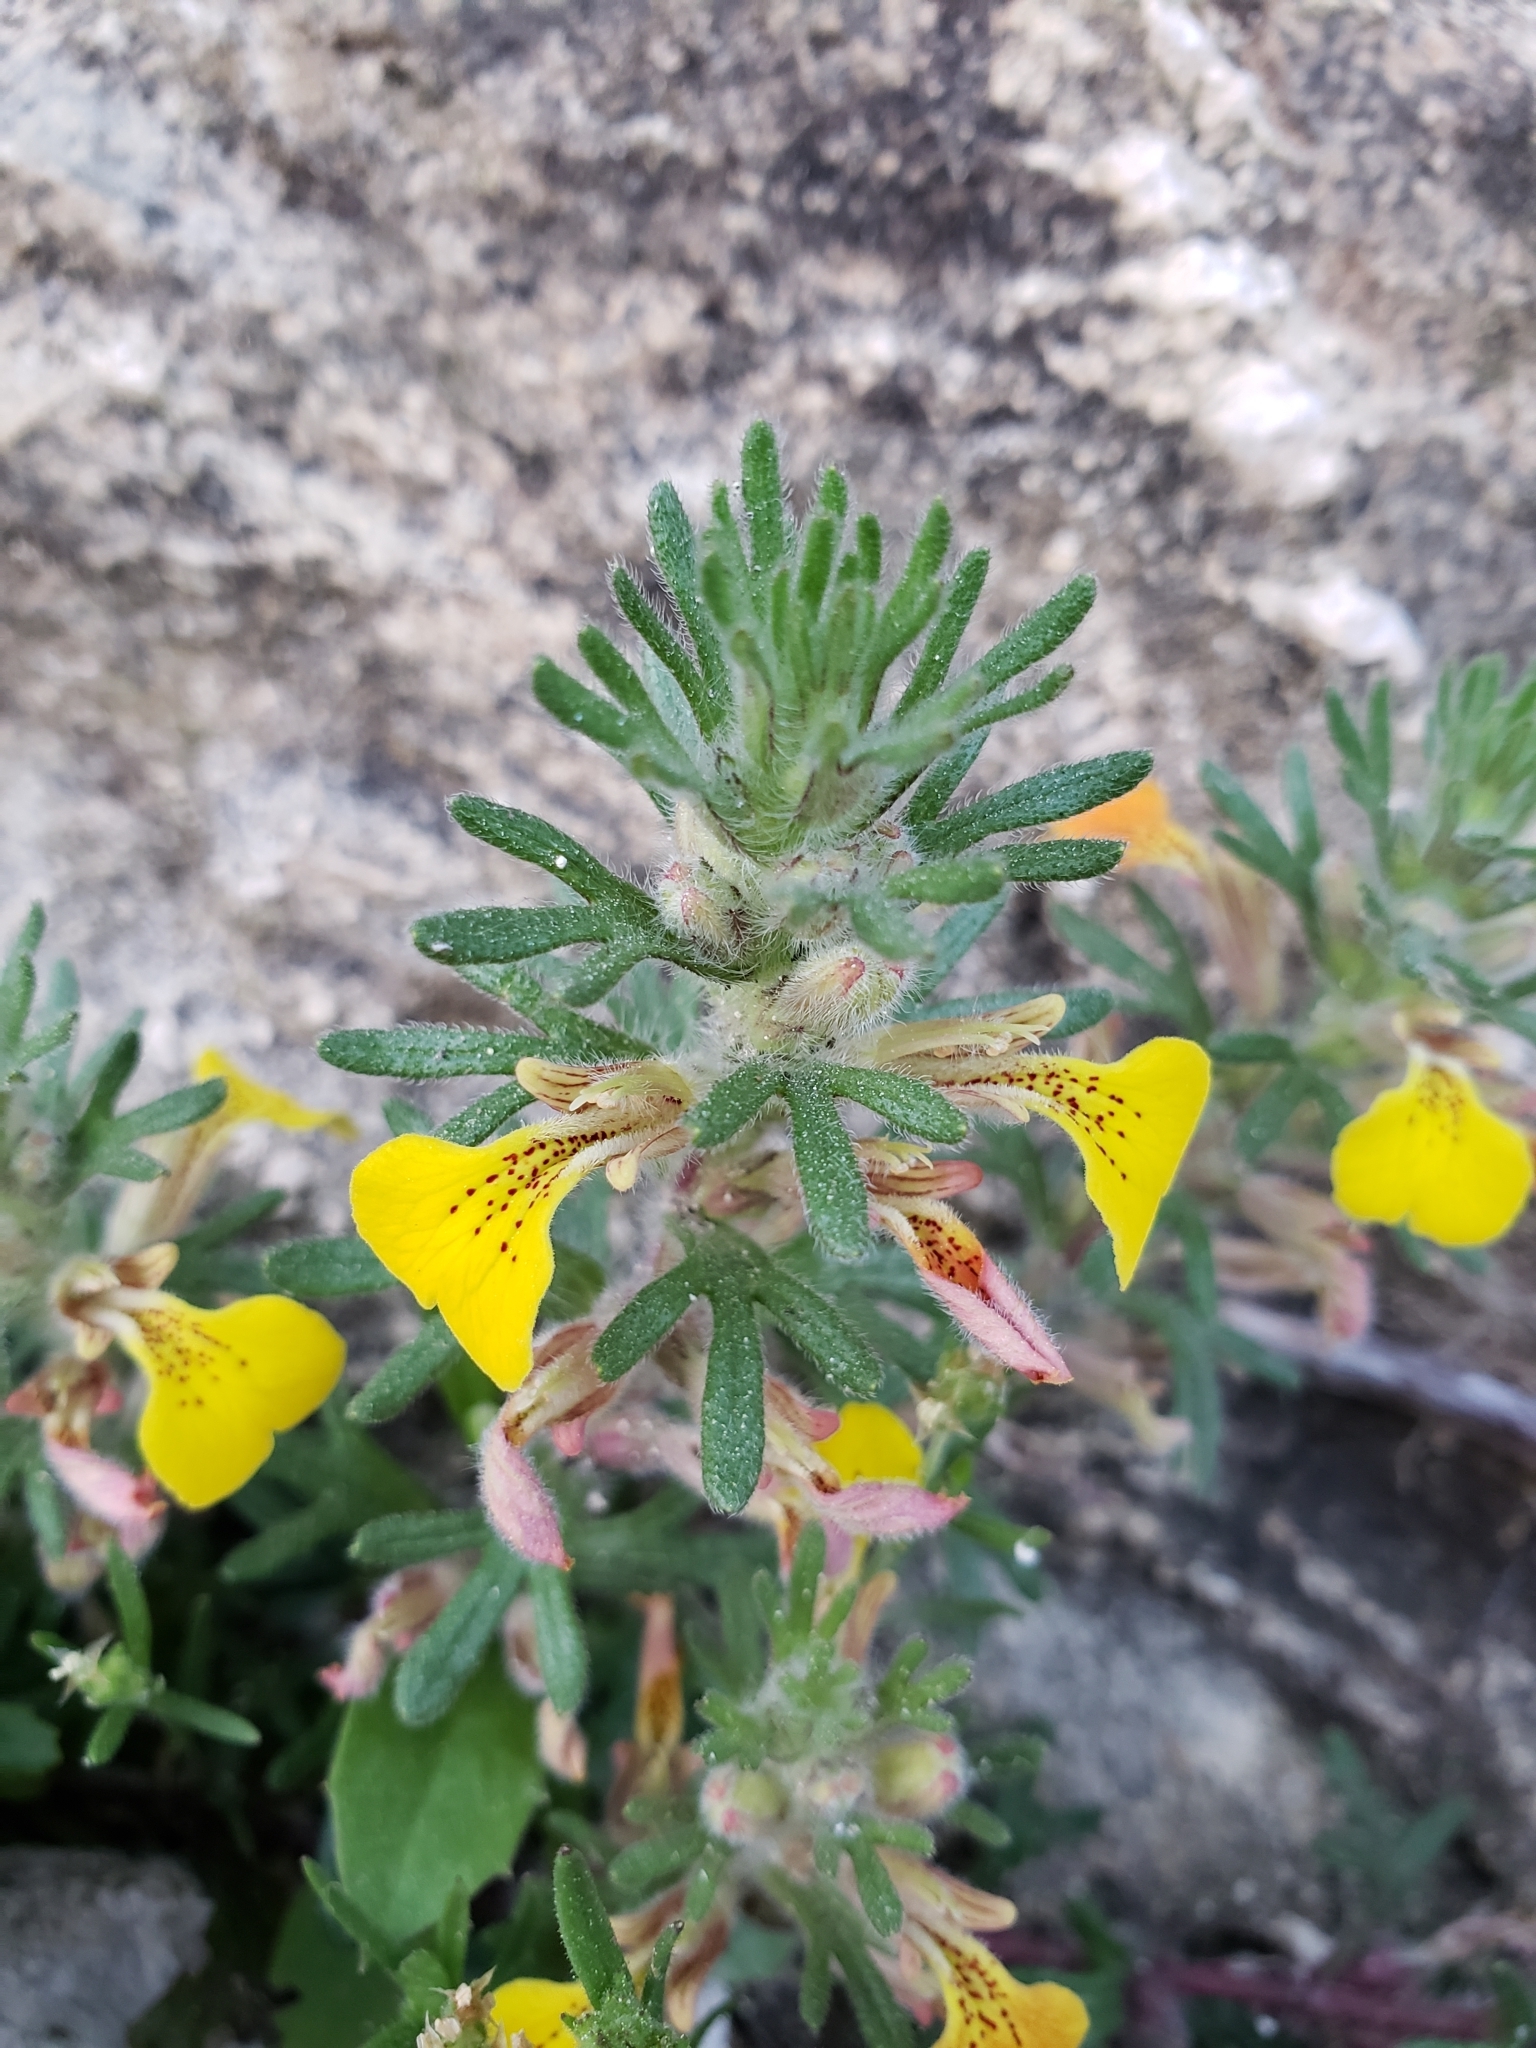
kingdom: Plantae
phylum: Tracheophyta
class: Magnoliopsida
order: Lamiales
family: Lamiaceae
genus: Ajuga
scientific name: Ajuga chamaepitys
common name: Ground-pine
